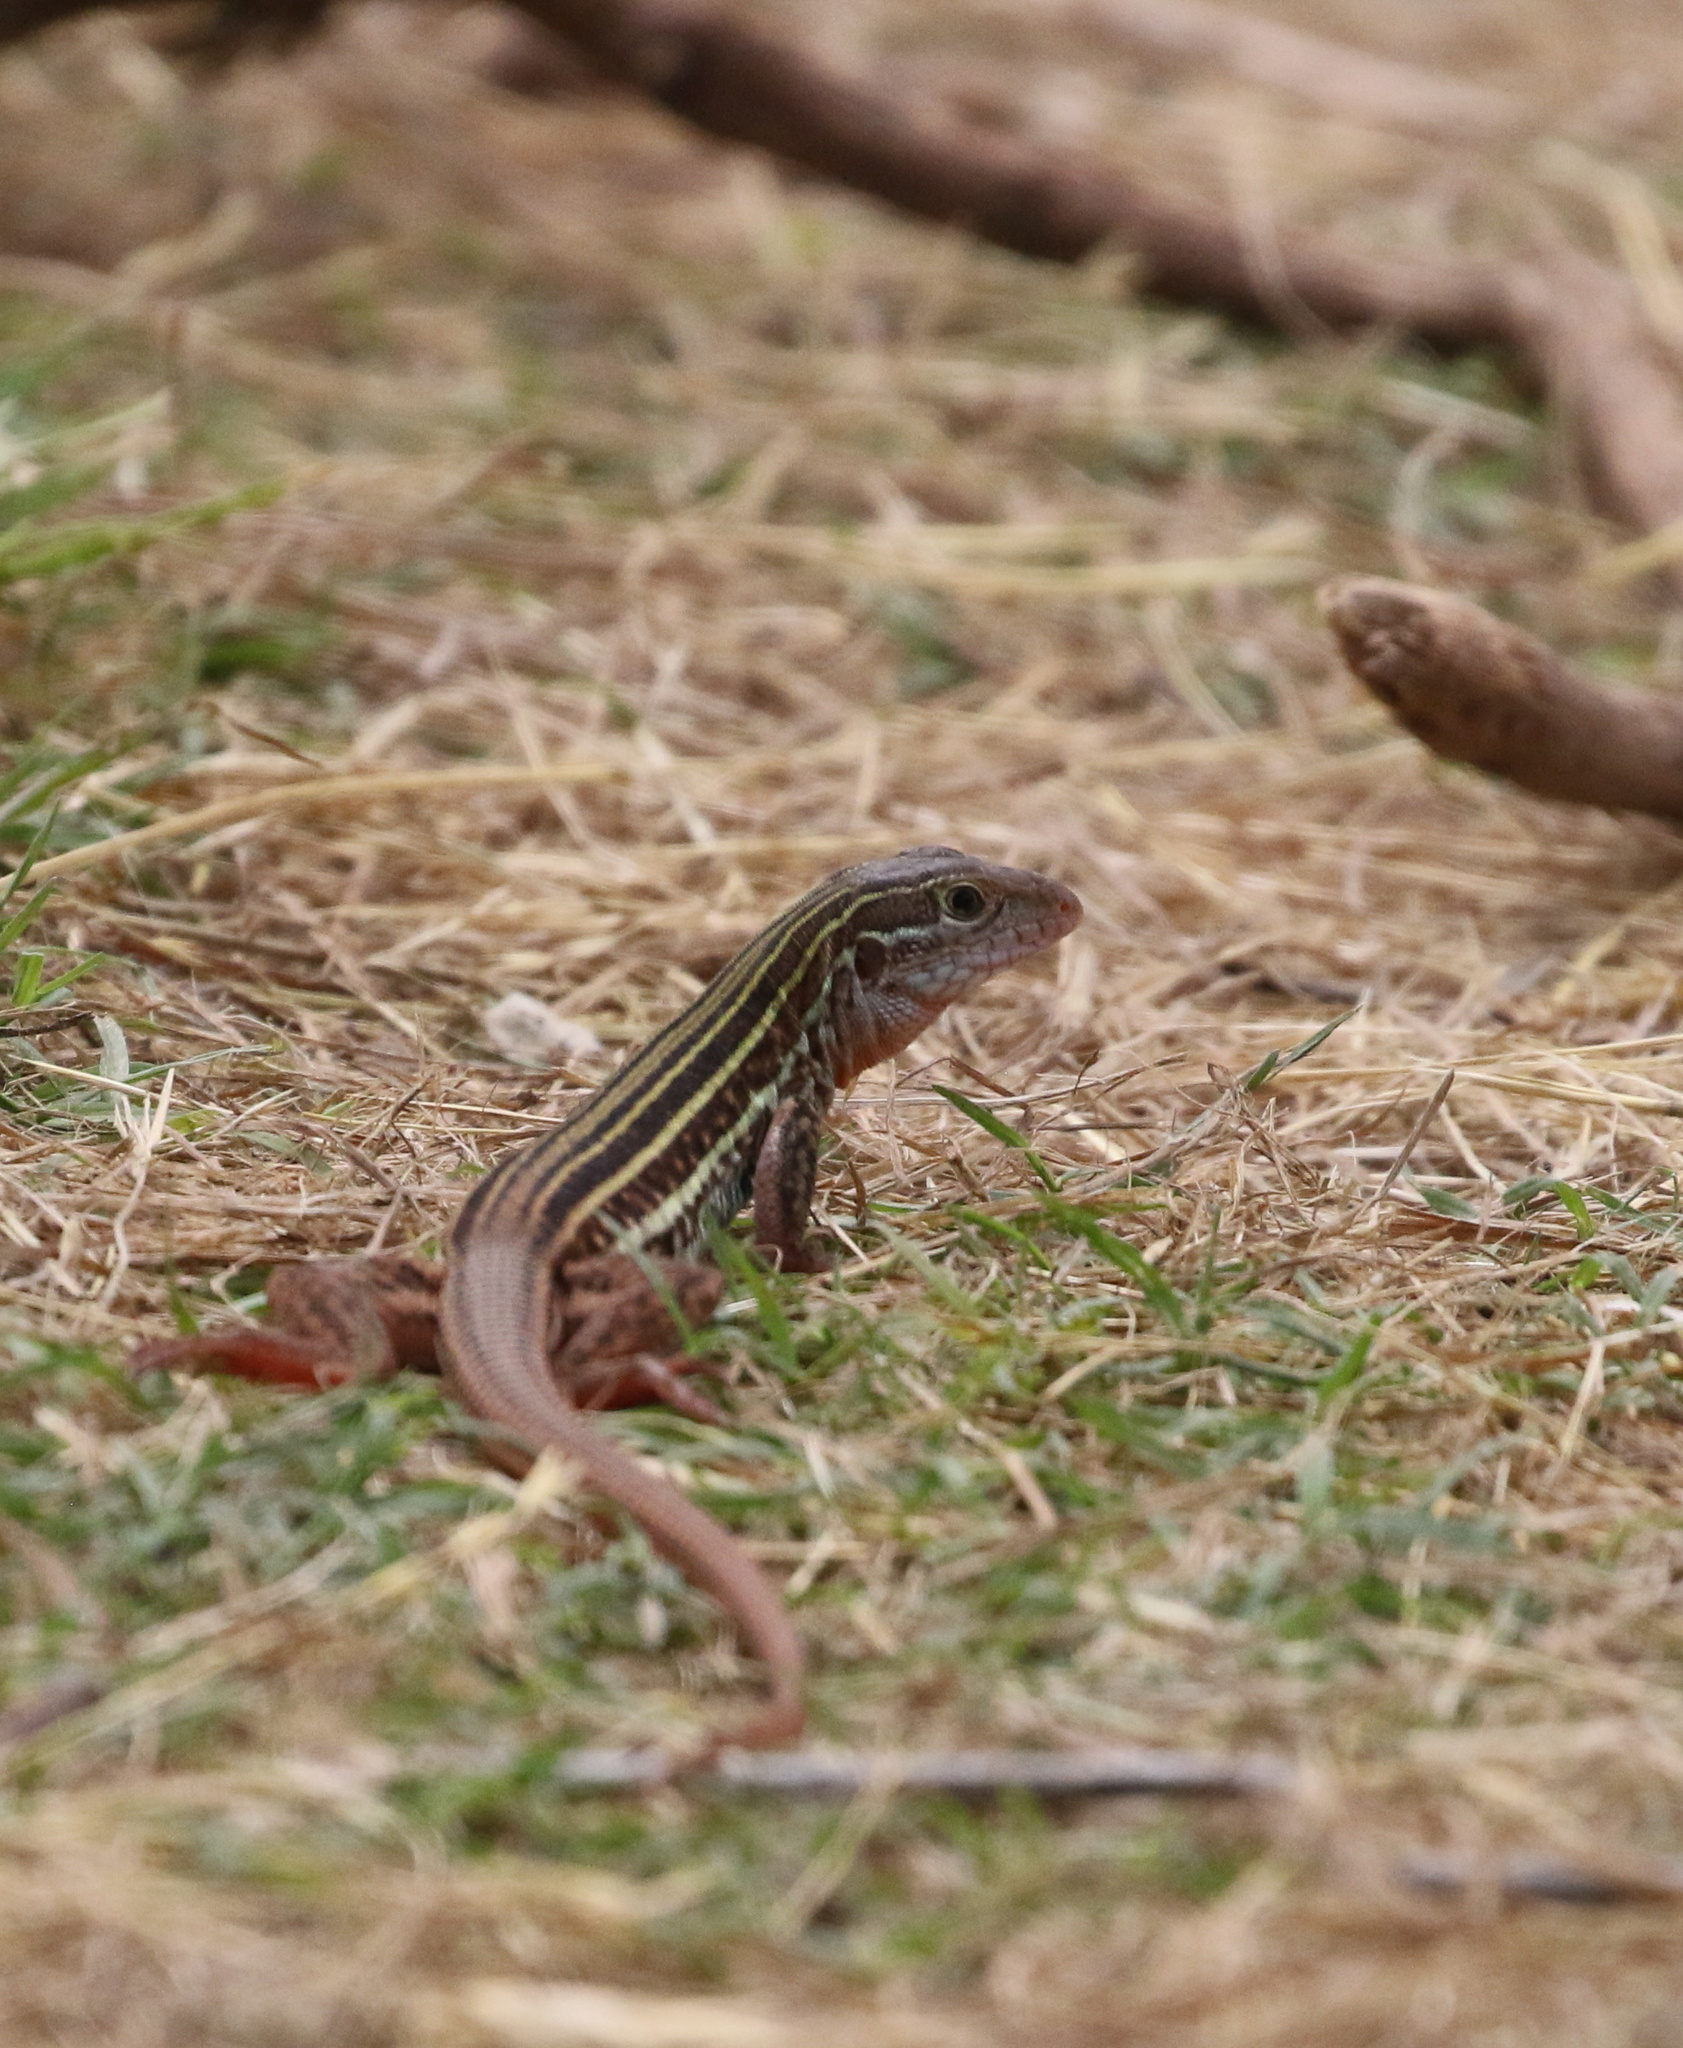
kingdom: Animalia
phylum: Chordata
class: Squamata
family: Teiidae
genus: Aspidoscelis
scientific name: Aspidoscelis gularis
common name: Eastern spotted whiptail
